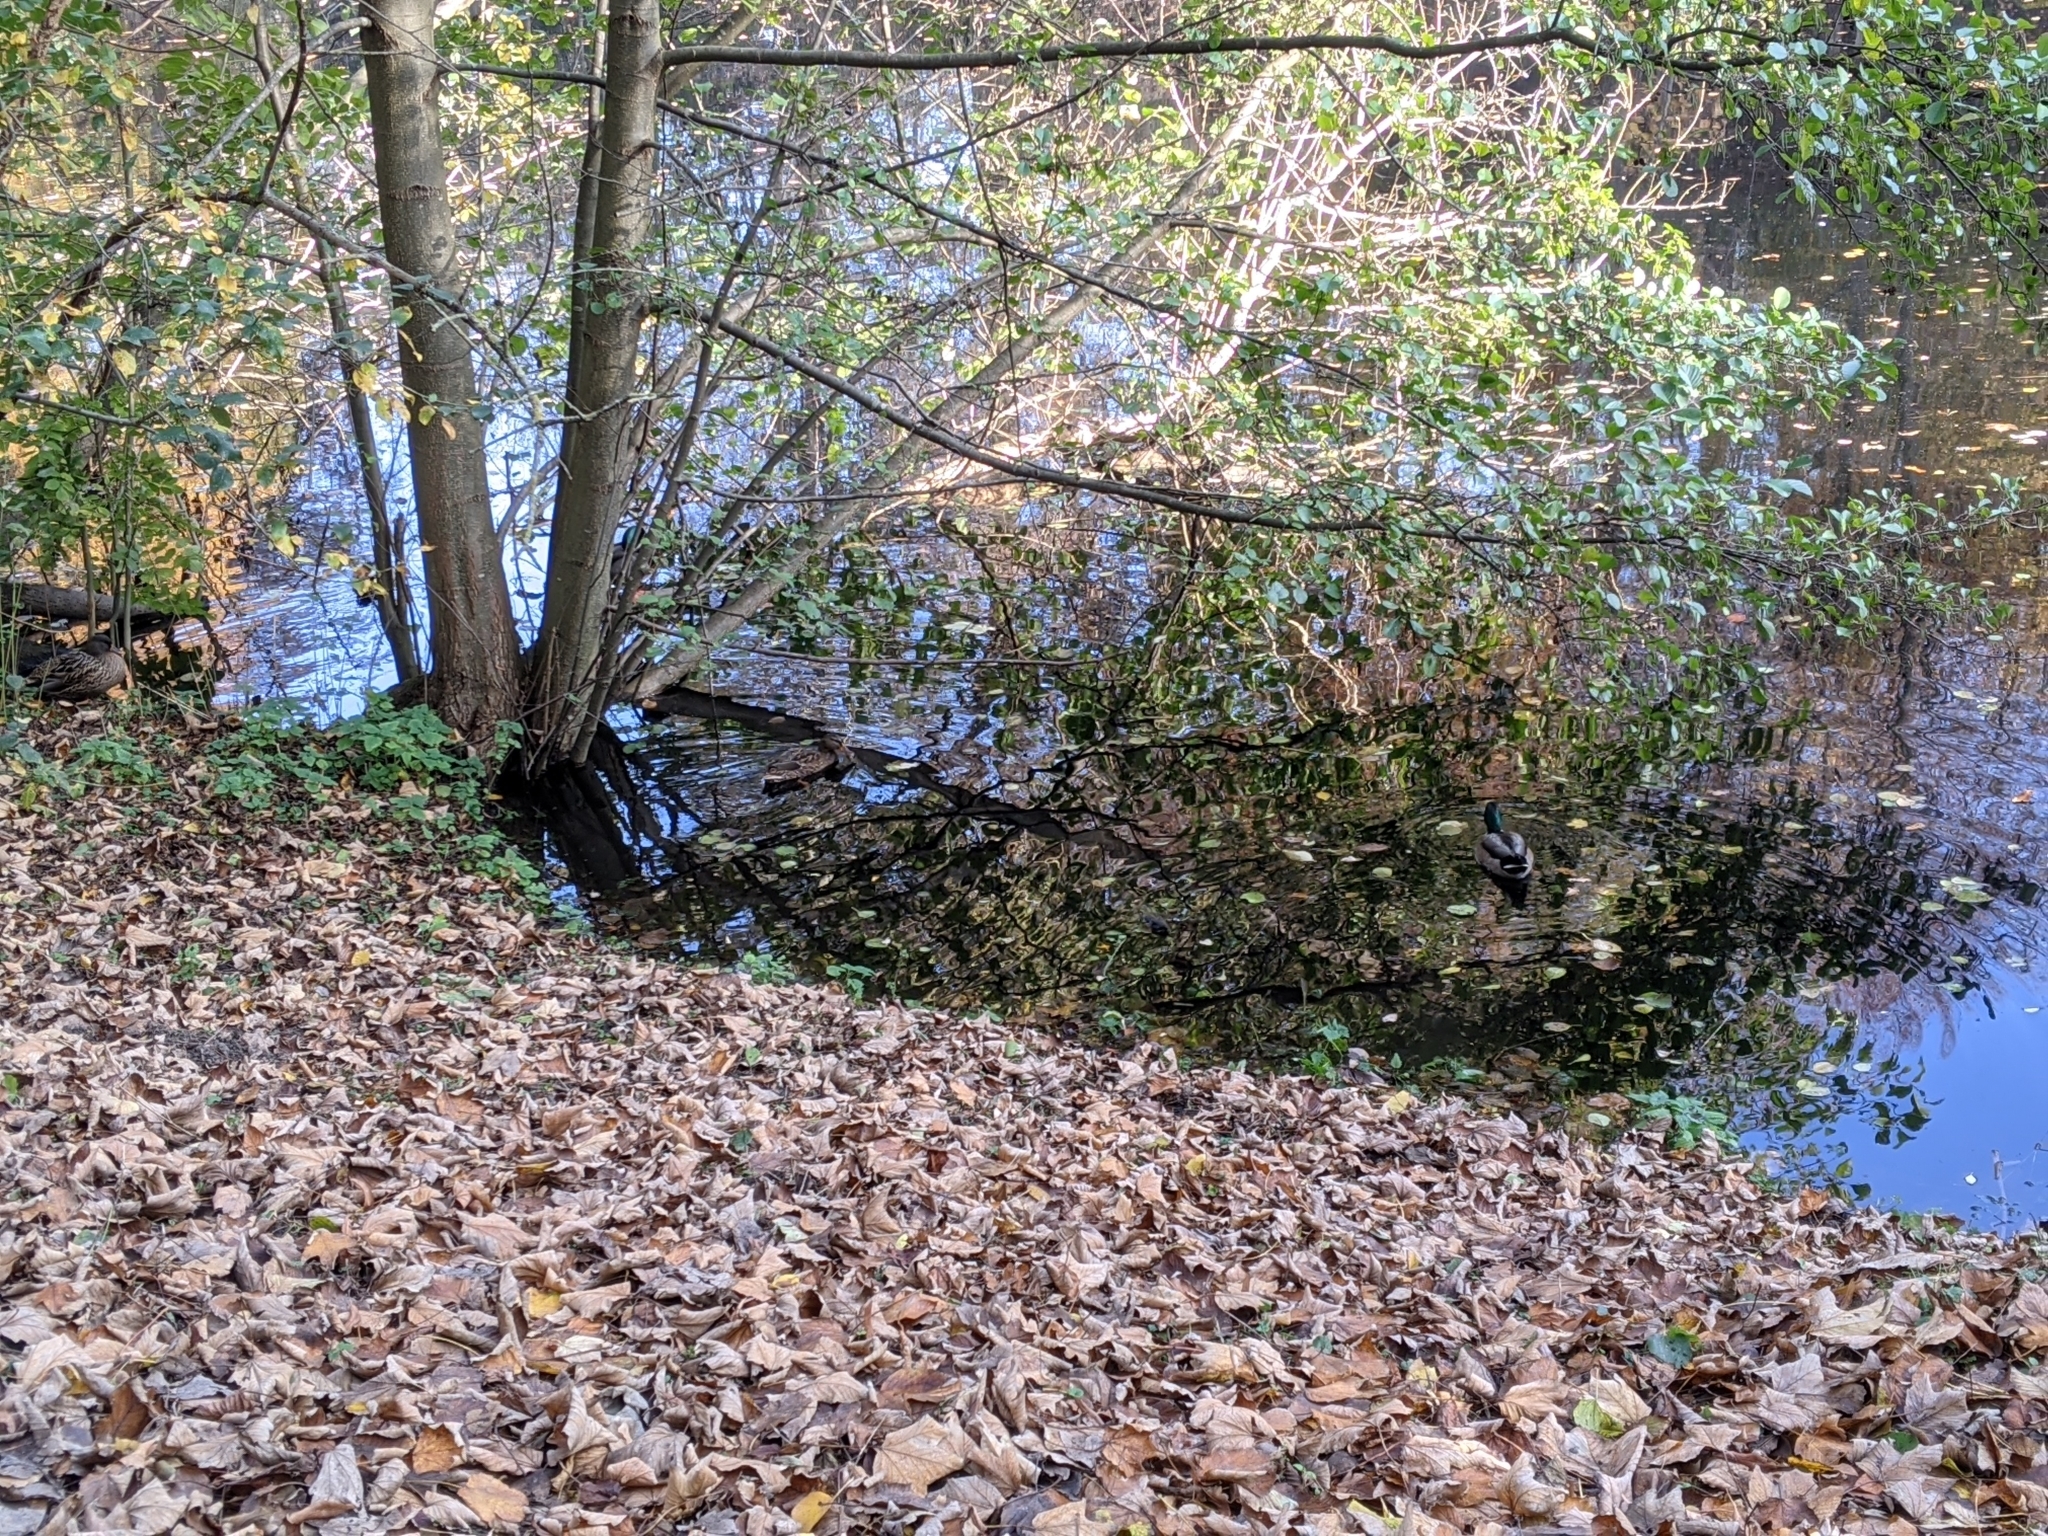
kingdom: Animalia
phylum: Chordata
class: Aves
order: Anseriformes
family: Anatidae
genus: Anas
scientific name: Anas platyrhynchos
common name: Mallard
